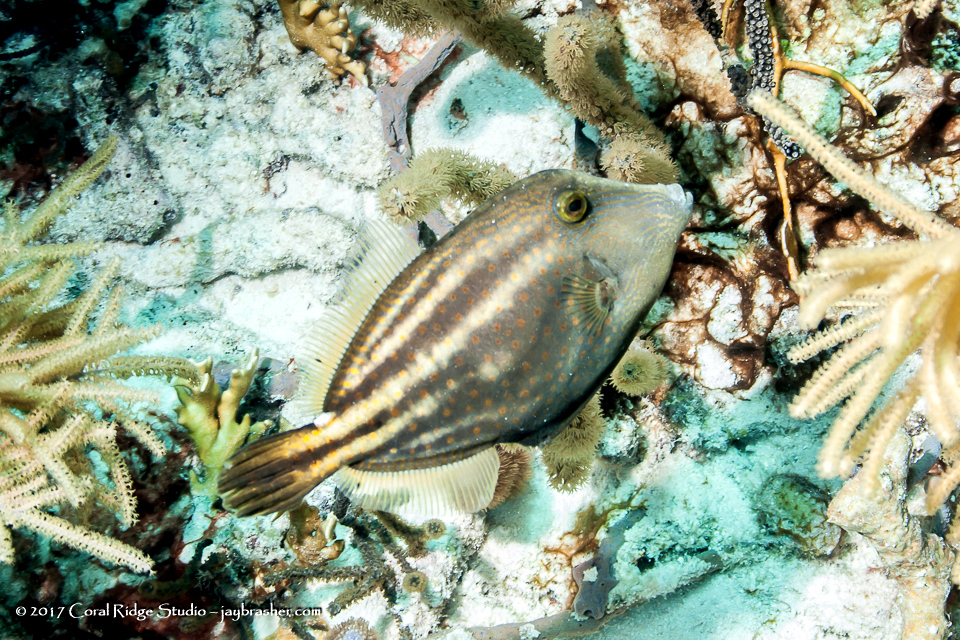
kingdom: Animalia
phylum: Chordata
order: Tetraodontiformes
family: Monacanthidae
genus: Cantherhines
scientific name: Cantherhines pullus
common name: Orangespotted filefish
